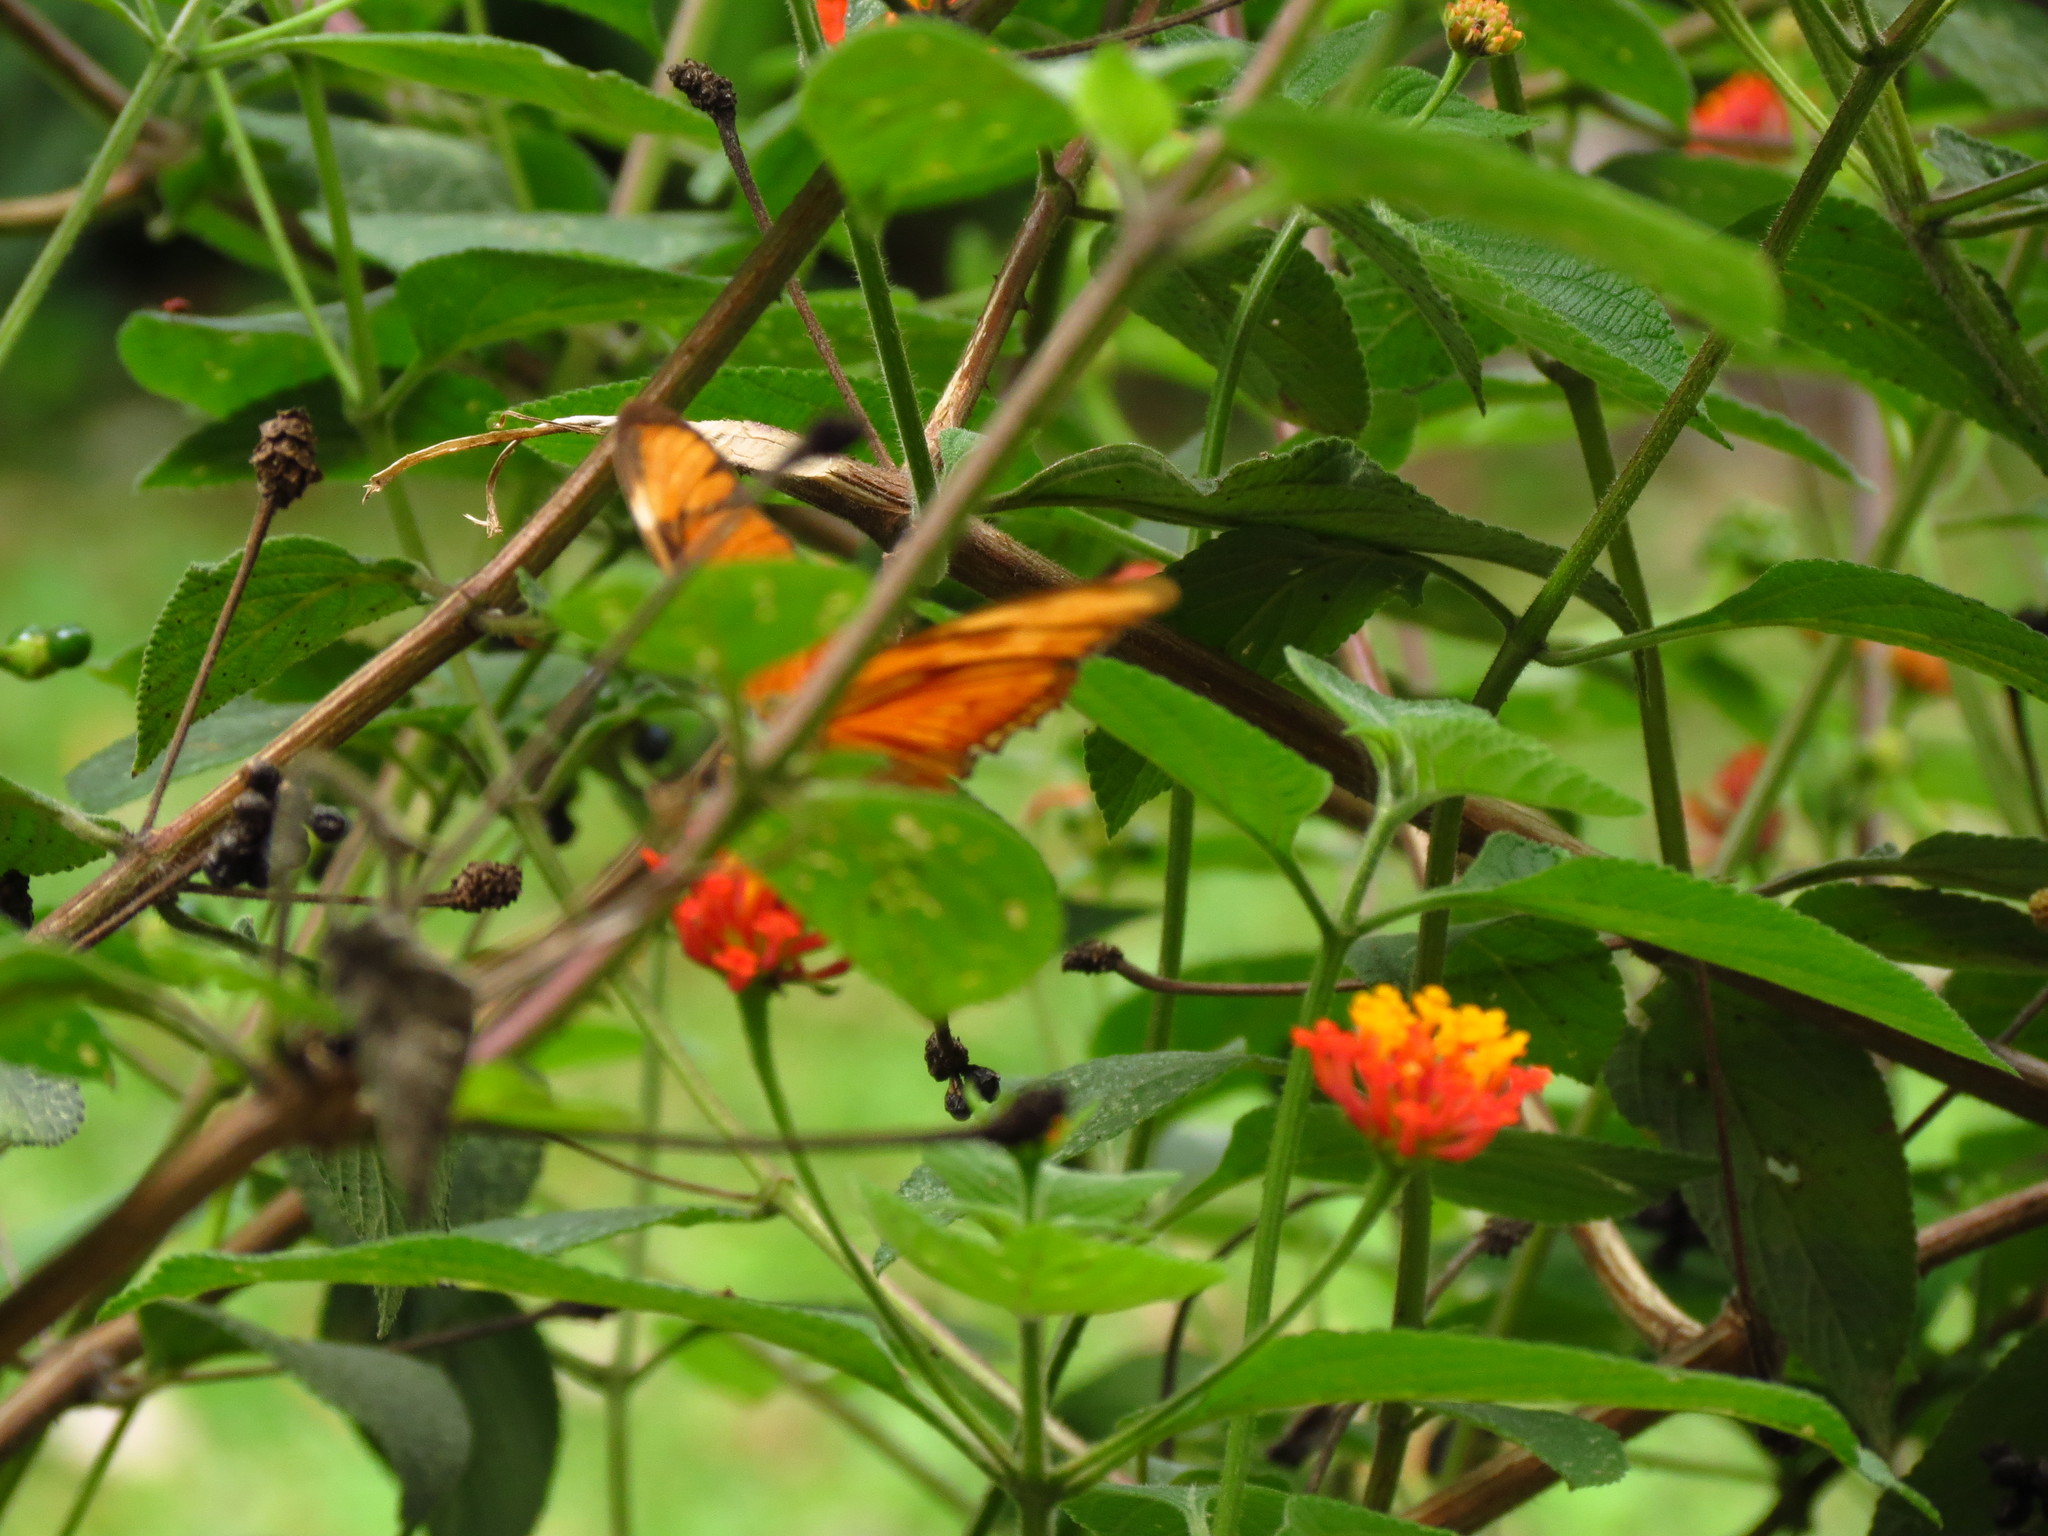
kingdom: Animalia
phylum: Arthropoda
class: Insecta
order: Lepidoptera
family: Nymphalidae
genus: Dryas
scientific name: Dryas iulia
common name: Flambeau
